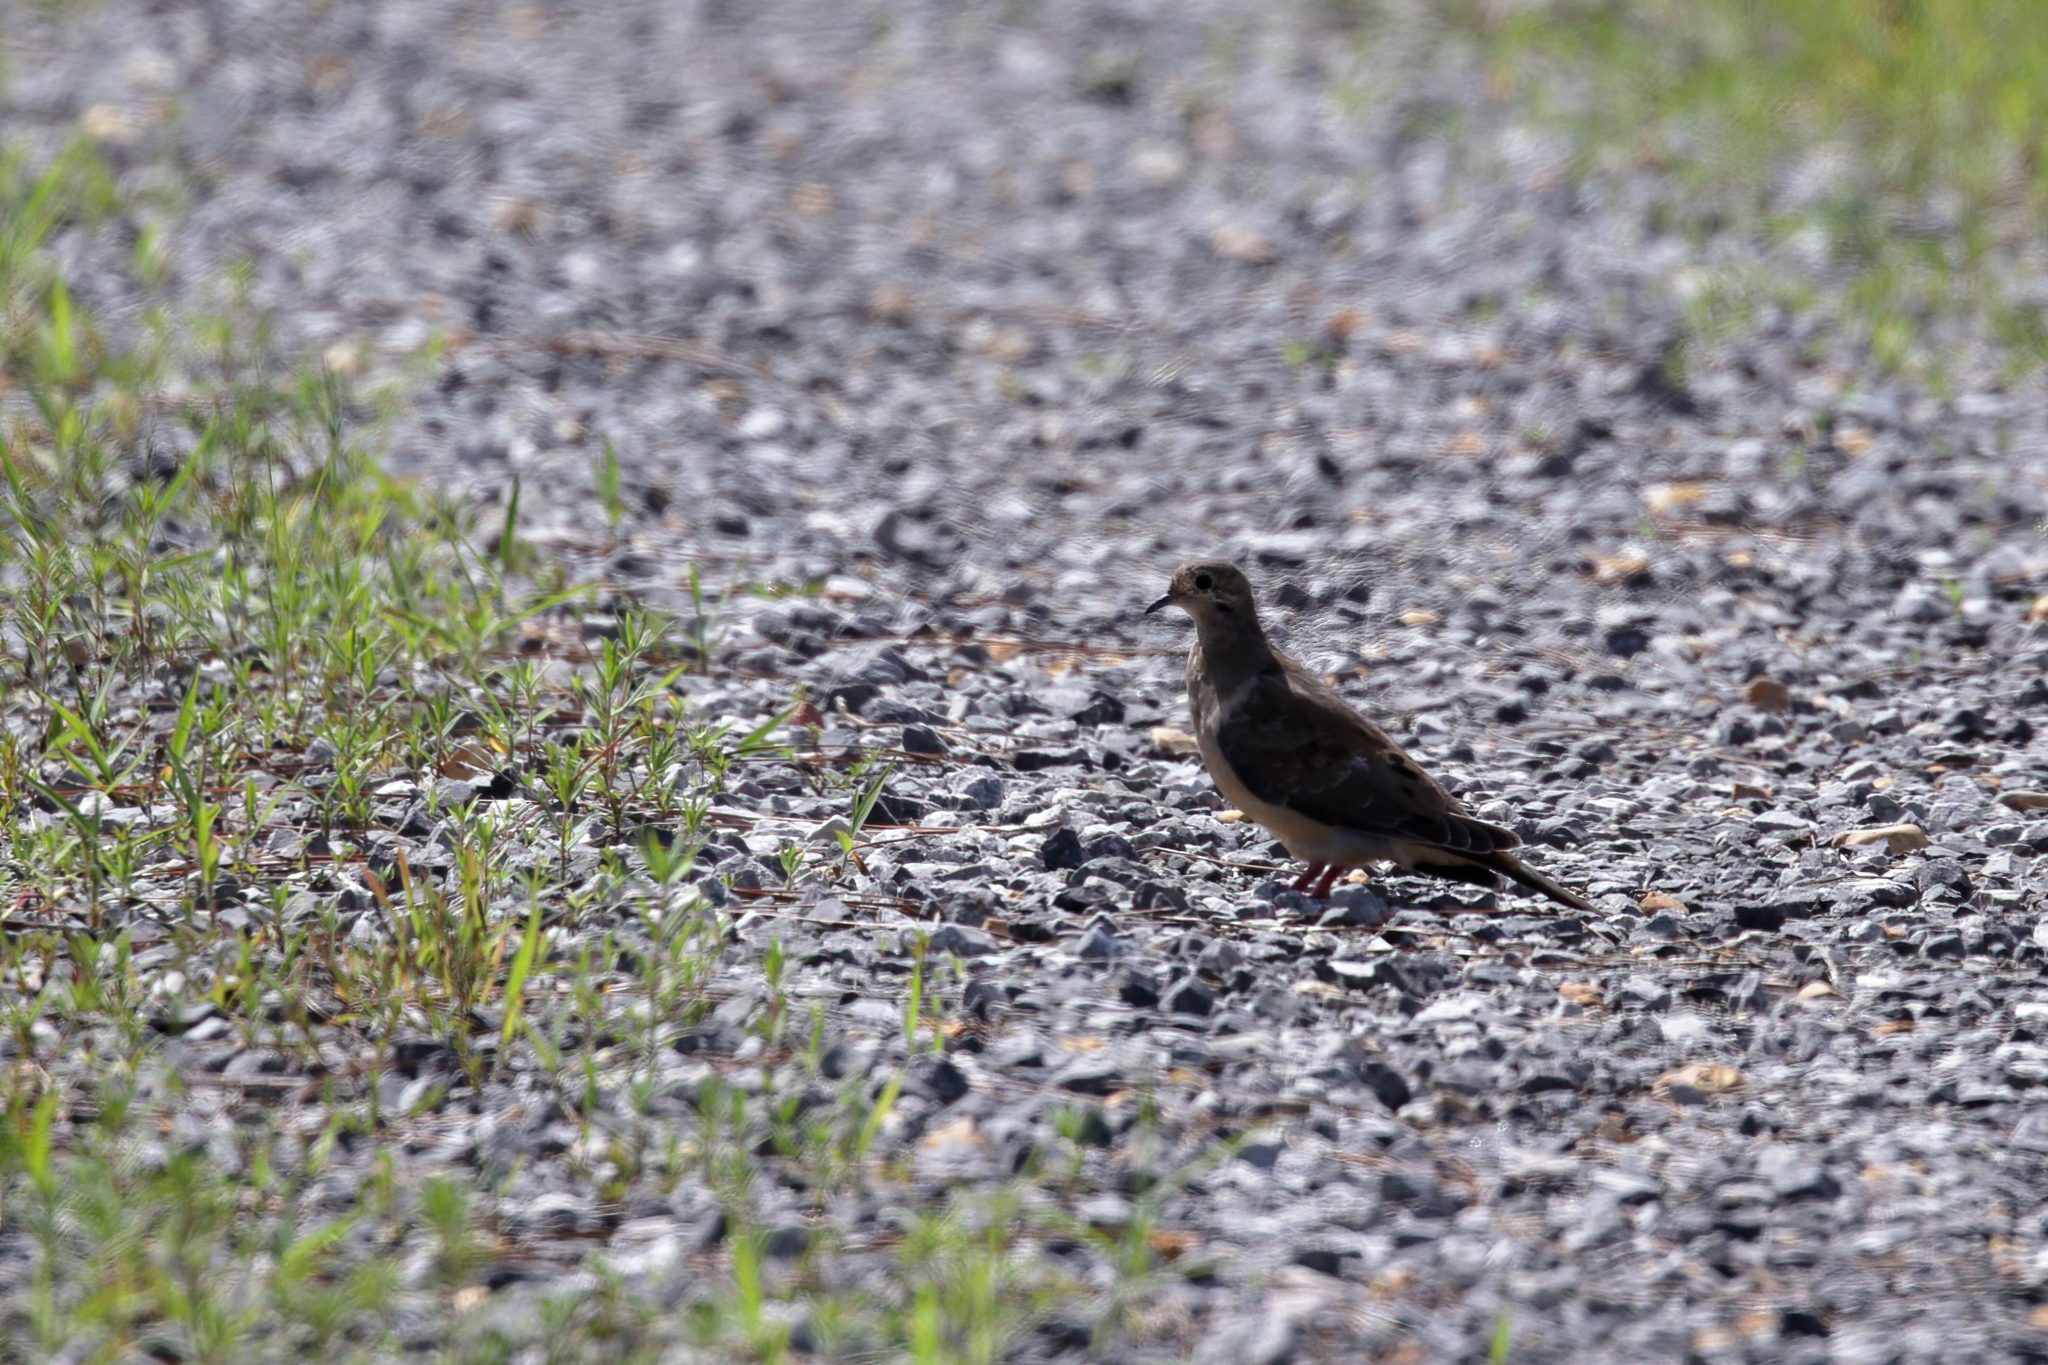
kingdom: Animalia
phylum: Chordata
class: Aves
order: Columbiformes
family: Columbidae
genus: Zenaida
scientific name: Zenaida macroura
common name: Mourning dove
